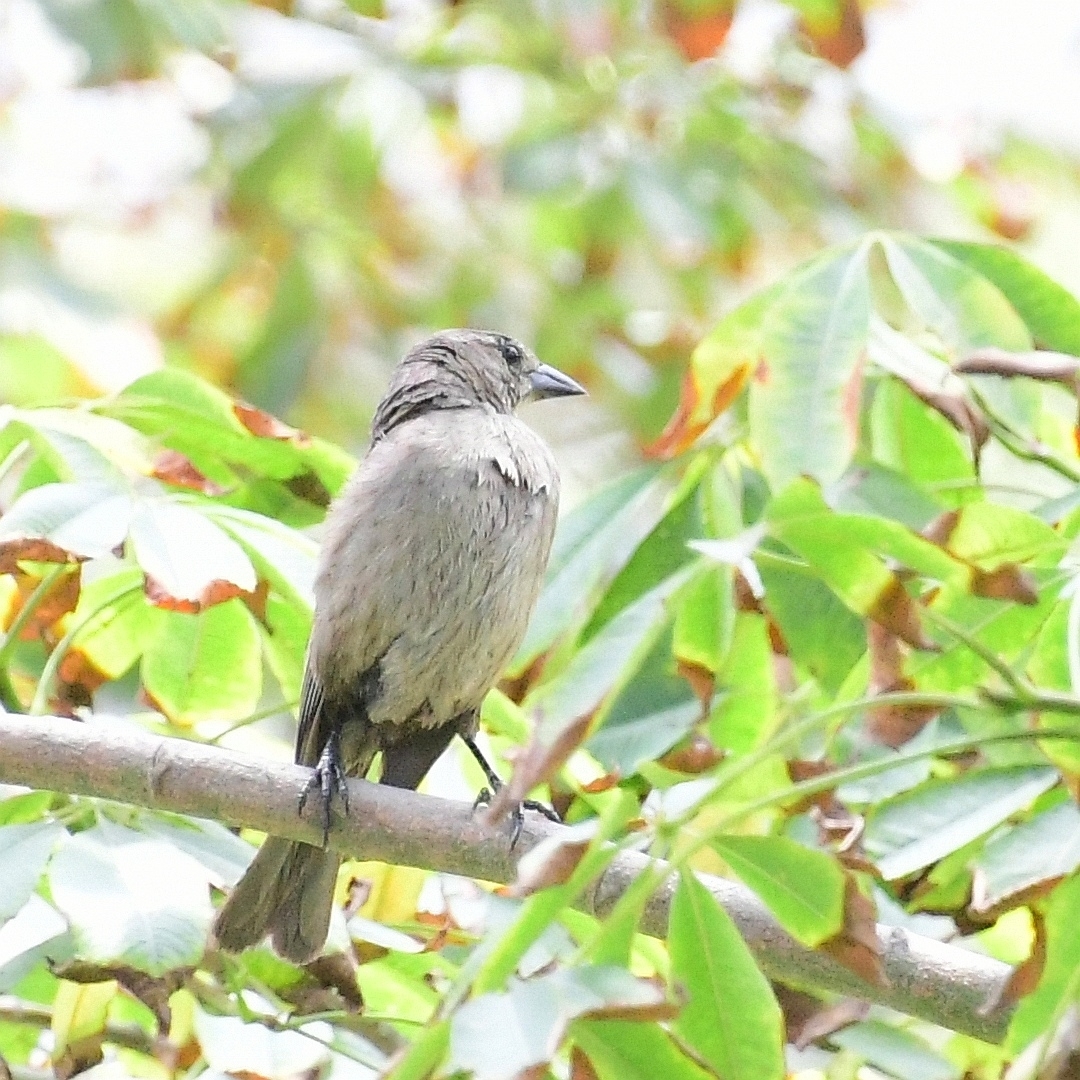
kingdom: Animalia
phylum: Chordata
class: Aves
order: Passeriformes
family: Icteridae
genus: Molothrus
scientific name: Molothrus bonariensis
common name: Shiny cowbird
